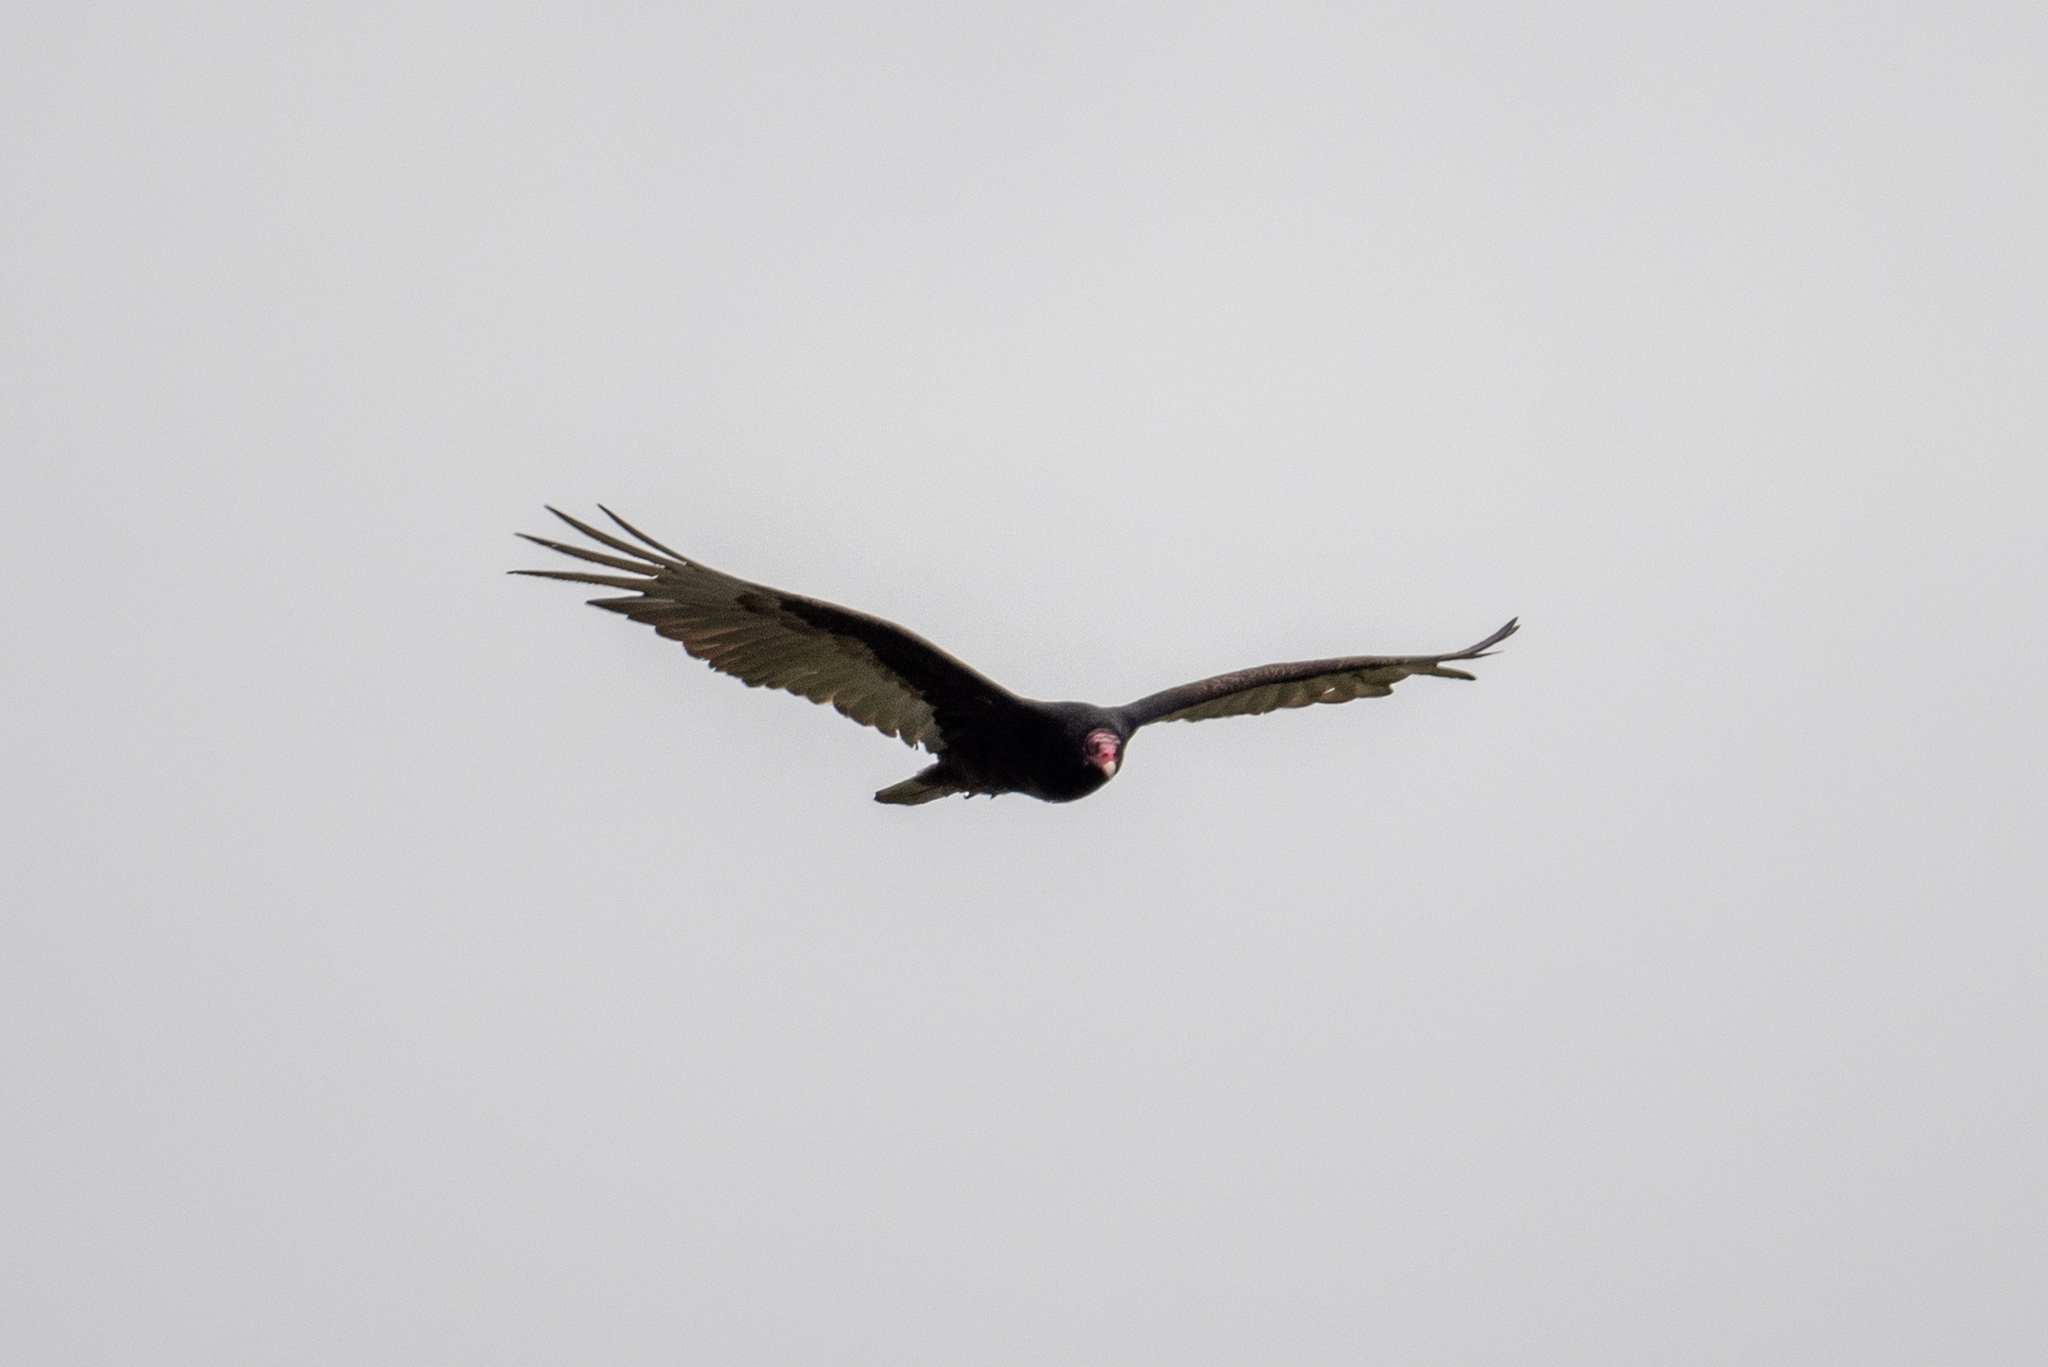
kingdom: Animalia
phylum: Chordata
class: Aves
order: Accipitriformes
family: Cathartidae
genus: Cathartes
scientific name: Cathartes aura
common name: Turkey vulture
